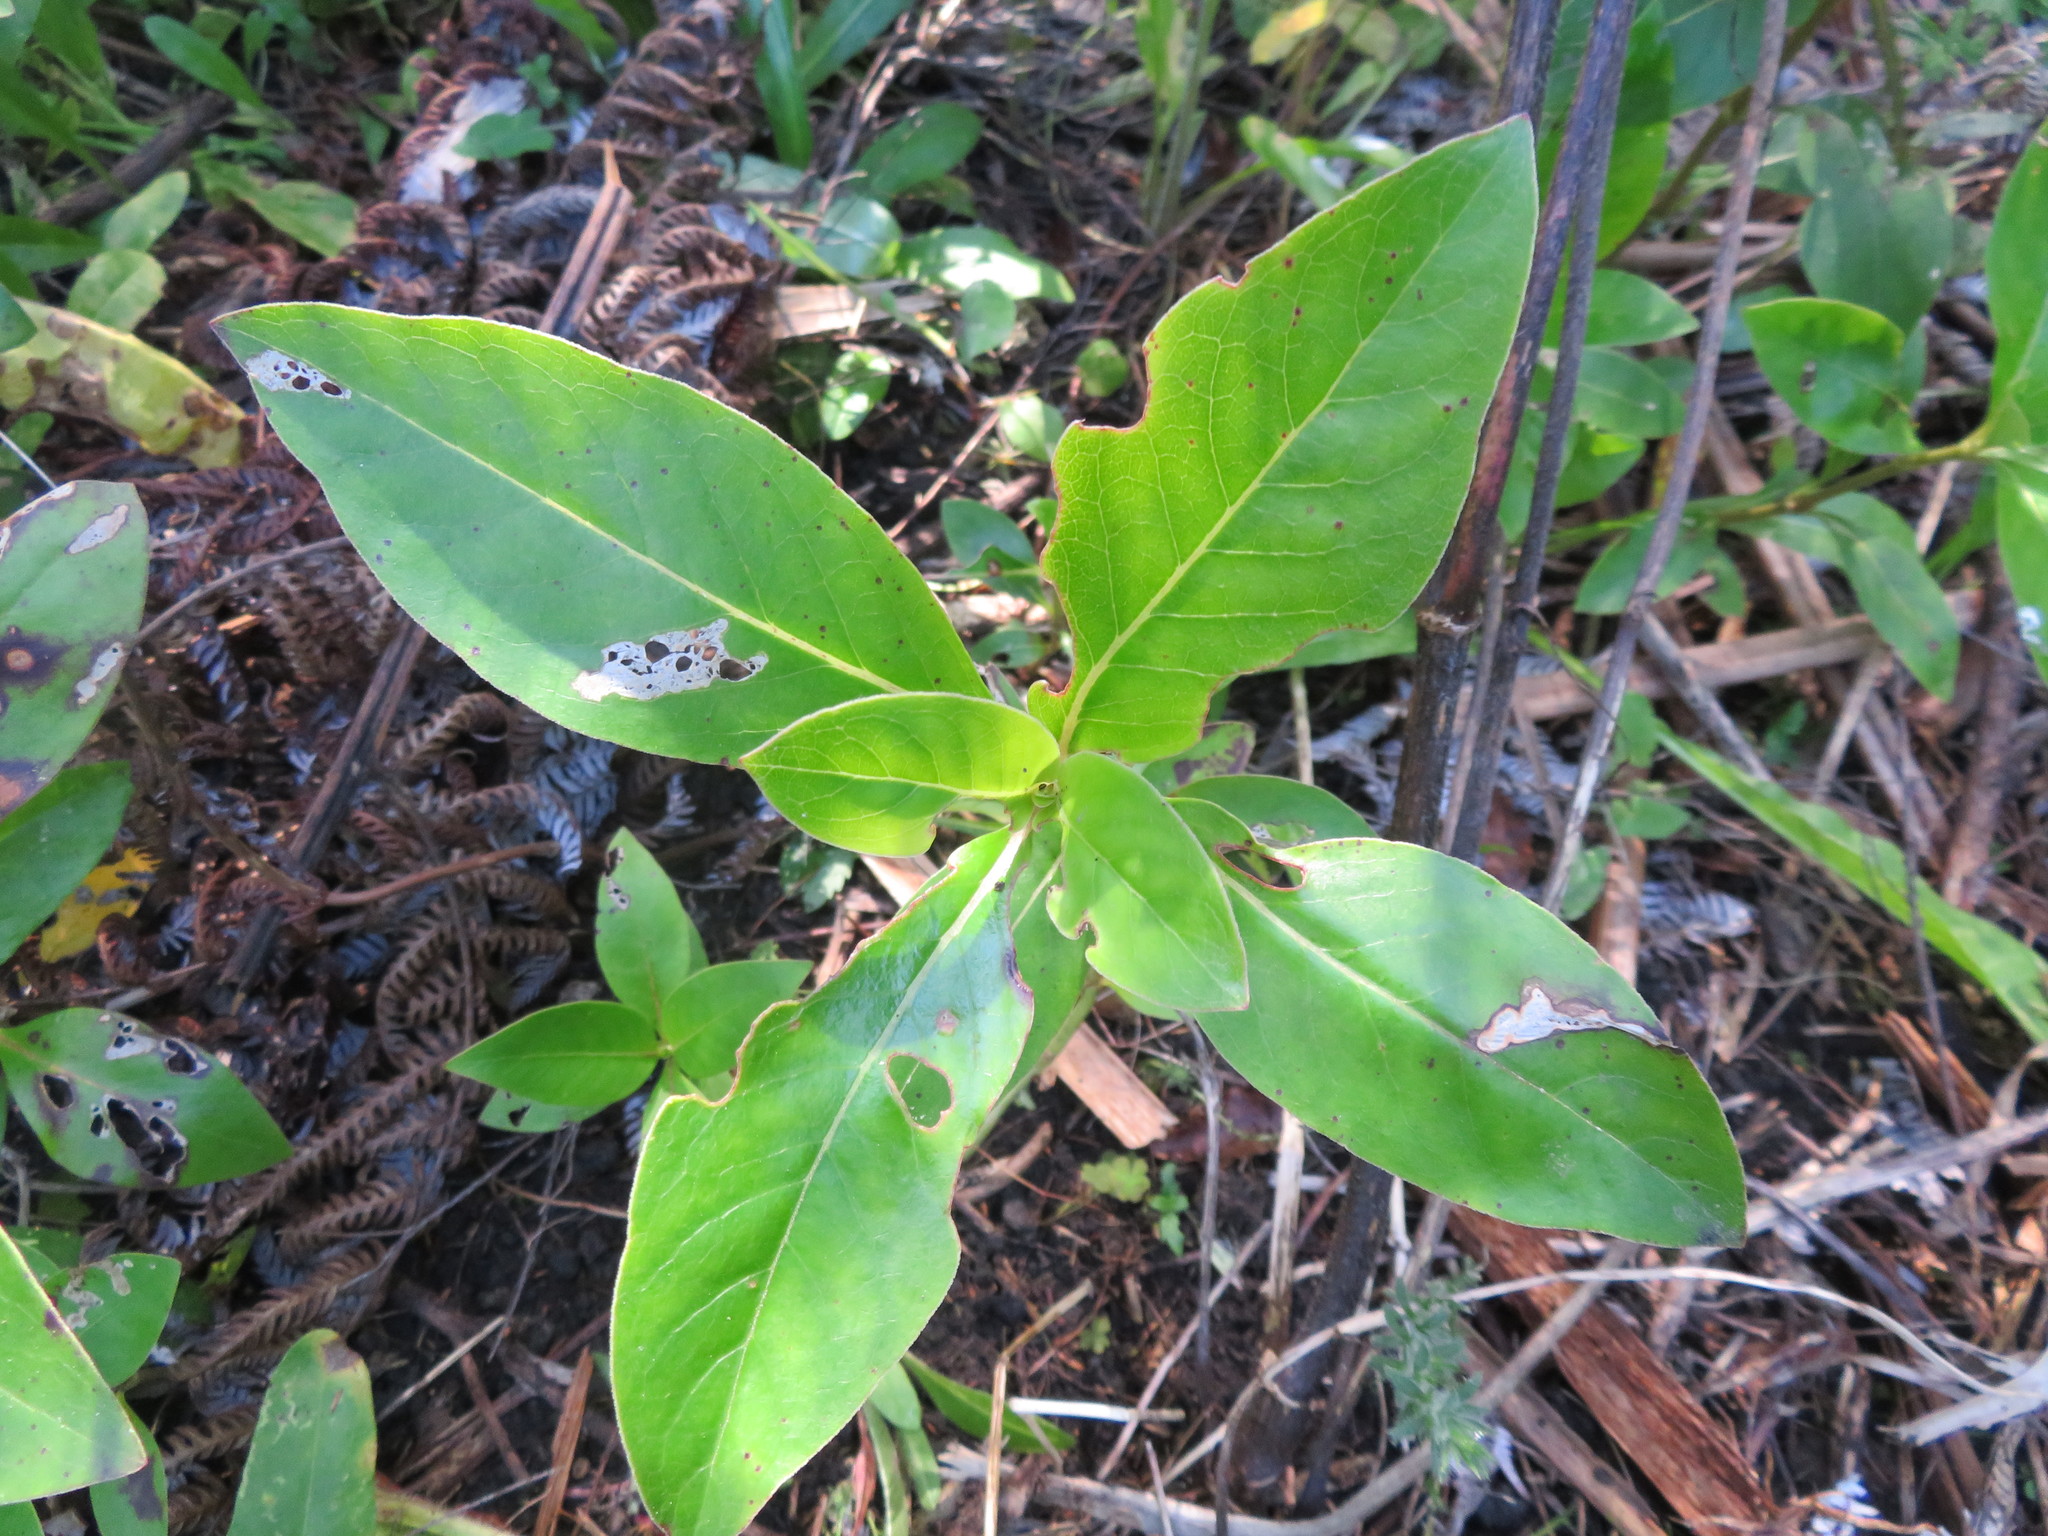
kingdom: Plantae
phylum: Tracheophyta
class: Magnoliopsida
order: Gentianales
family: Rubiaceae
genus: Coprosma
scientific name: Coprosma robusta
